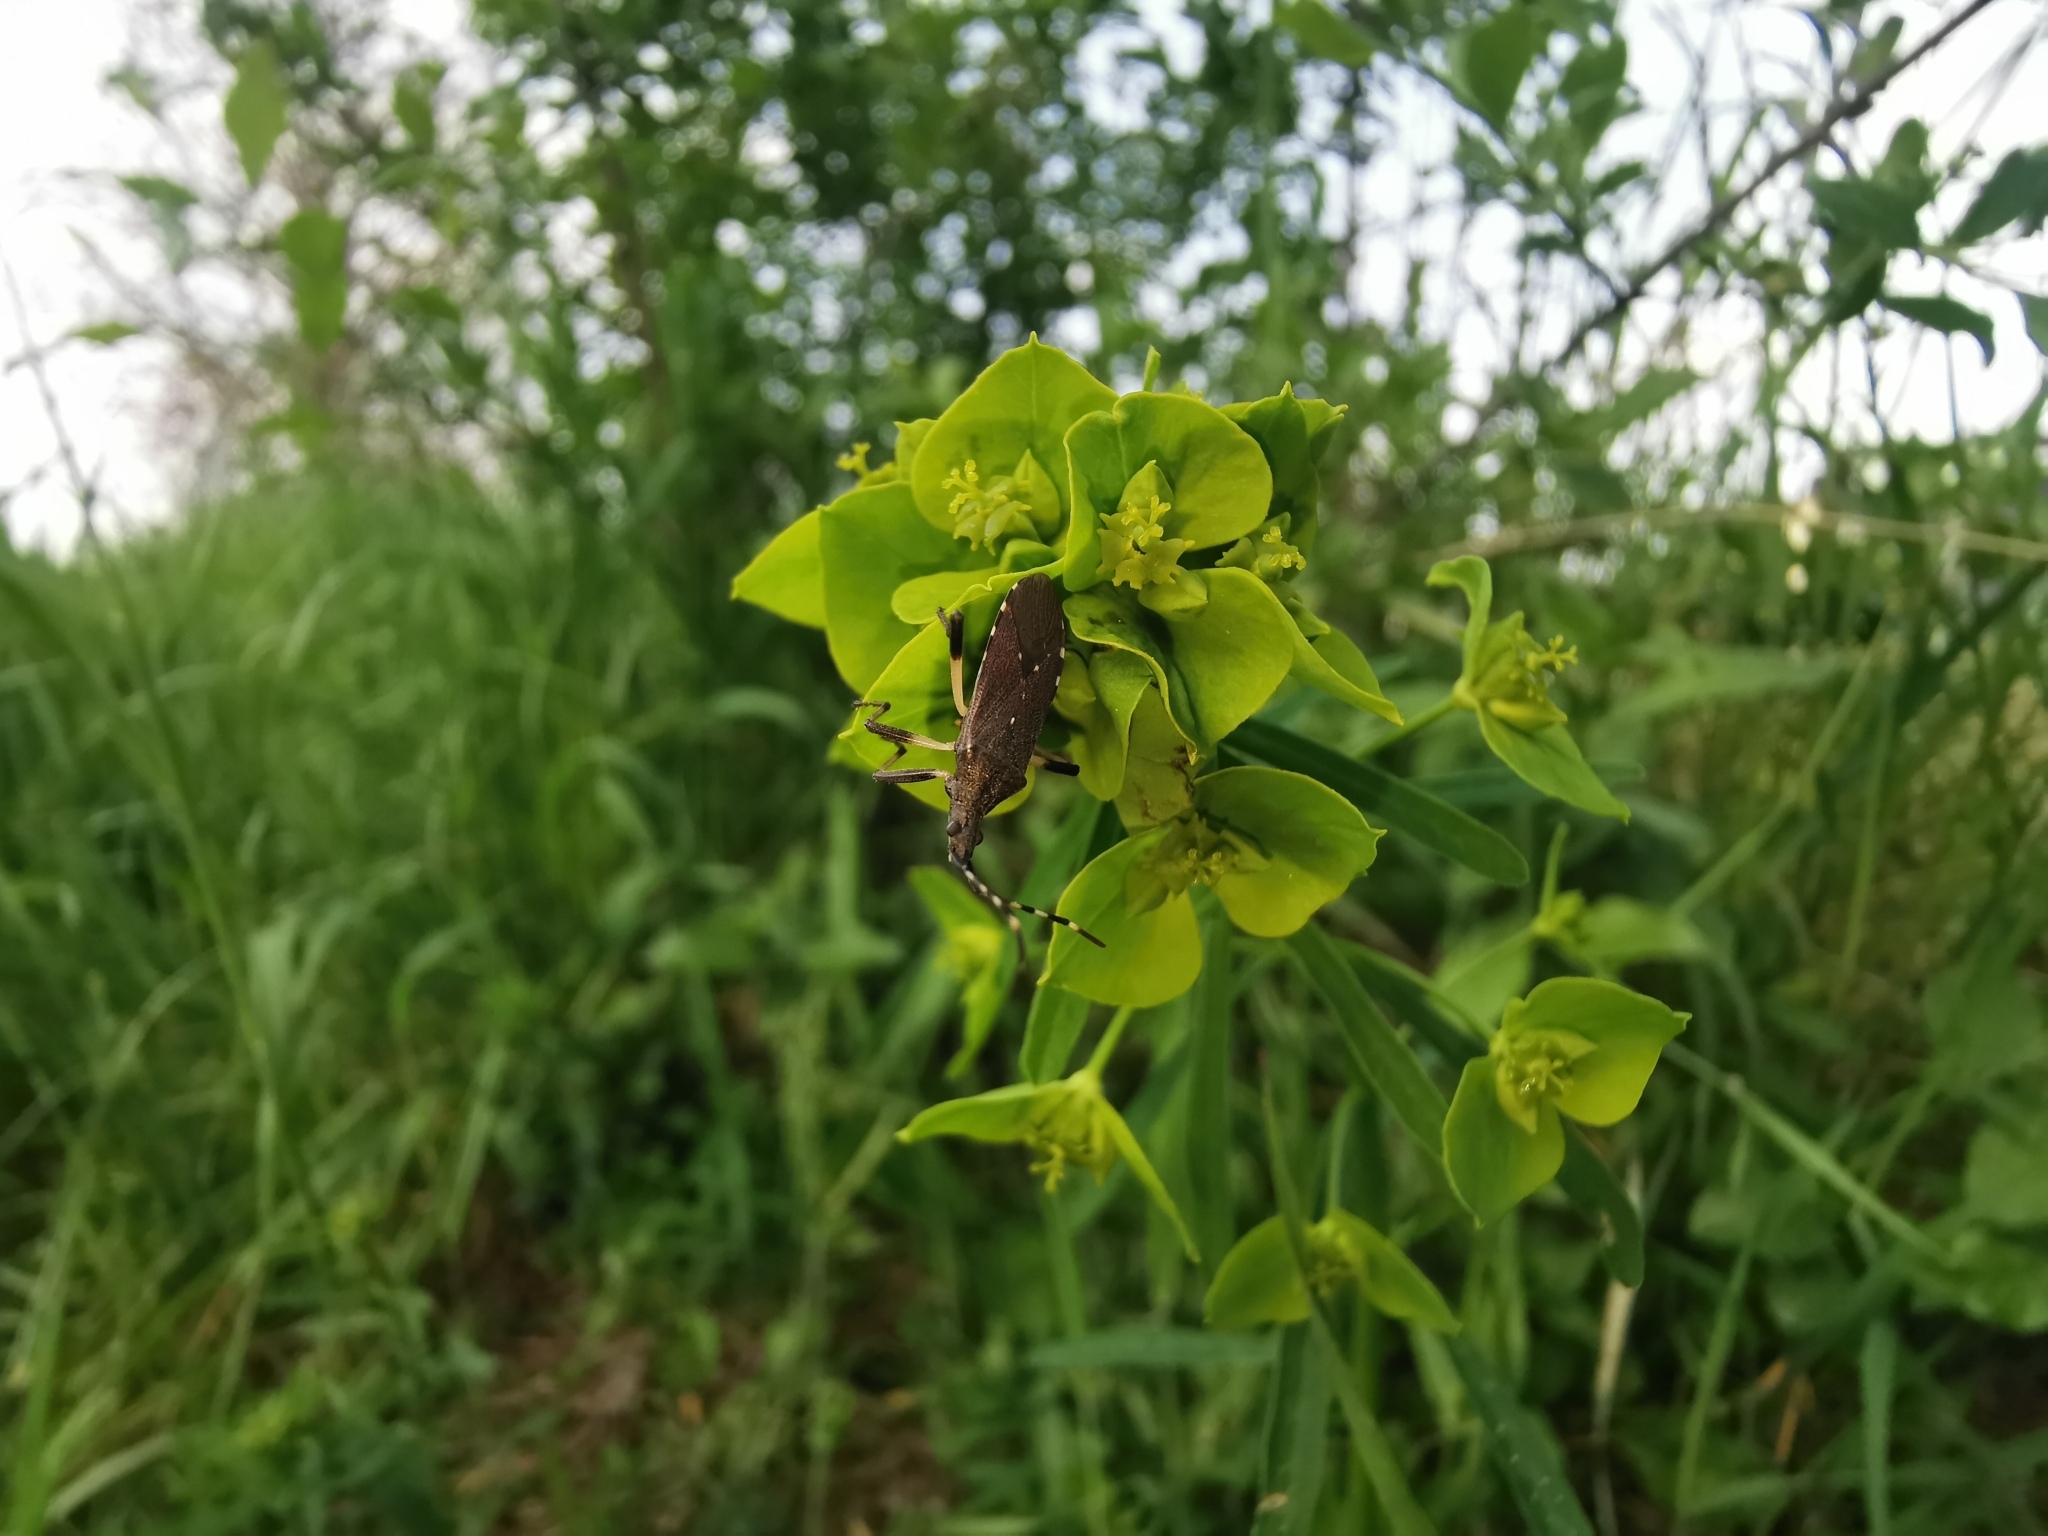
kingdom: Animalia
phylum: Arthropoda
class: Insecta
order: Hemiptera
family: Stenocephalidae
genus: Dicranocephalus
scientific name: Dicranocephalus agilis
